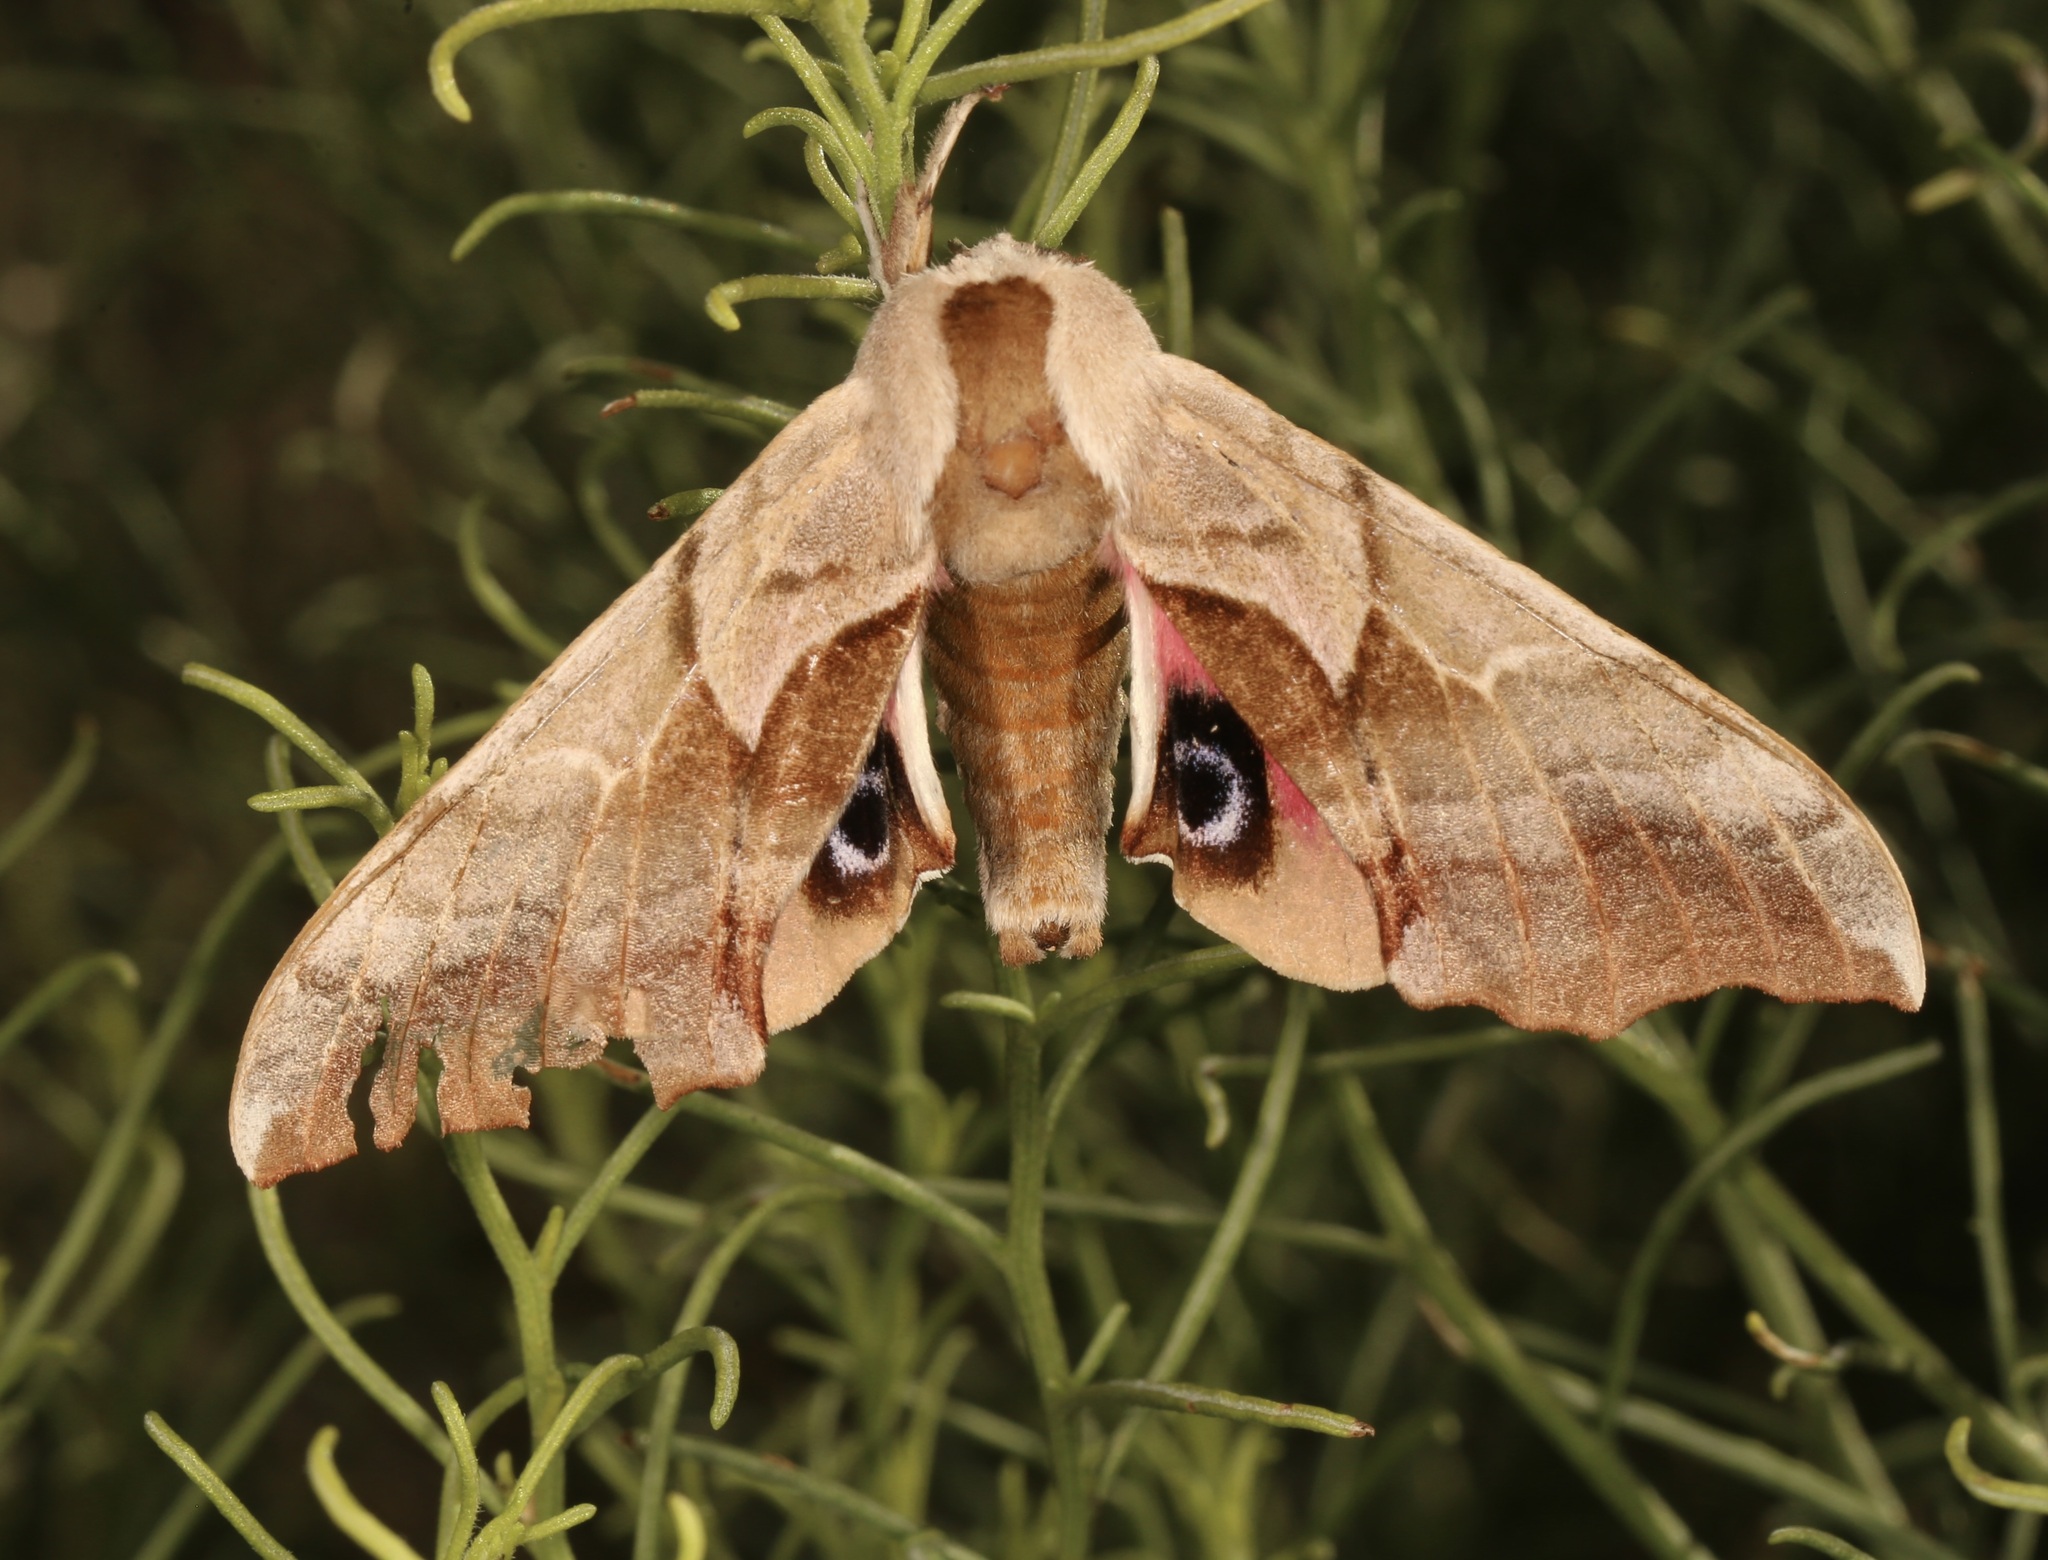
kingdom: Animalia
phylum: Arthropoda
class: Insecta
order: Lepidoptera
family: Sphingidae
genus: Smerinthus
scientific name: Smerinthus cerisyi
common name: Cerisy's sphinx moth
